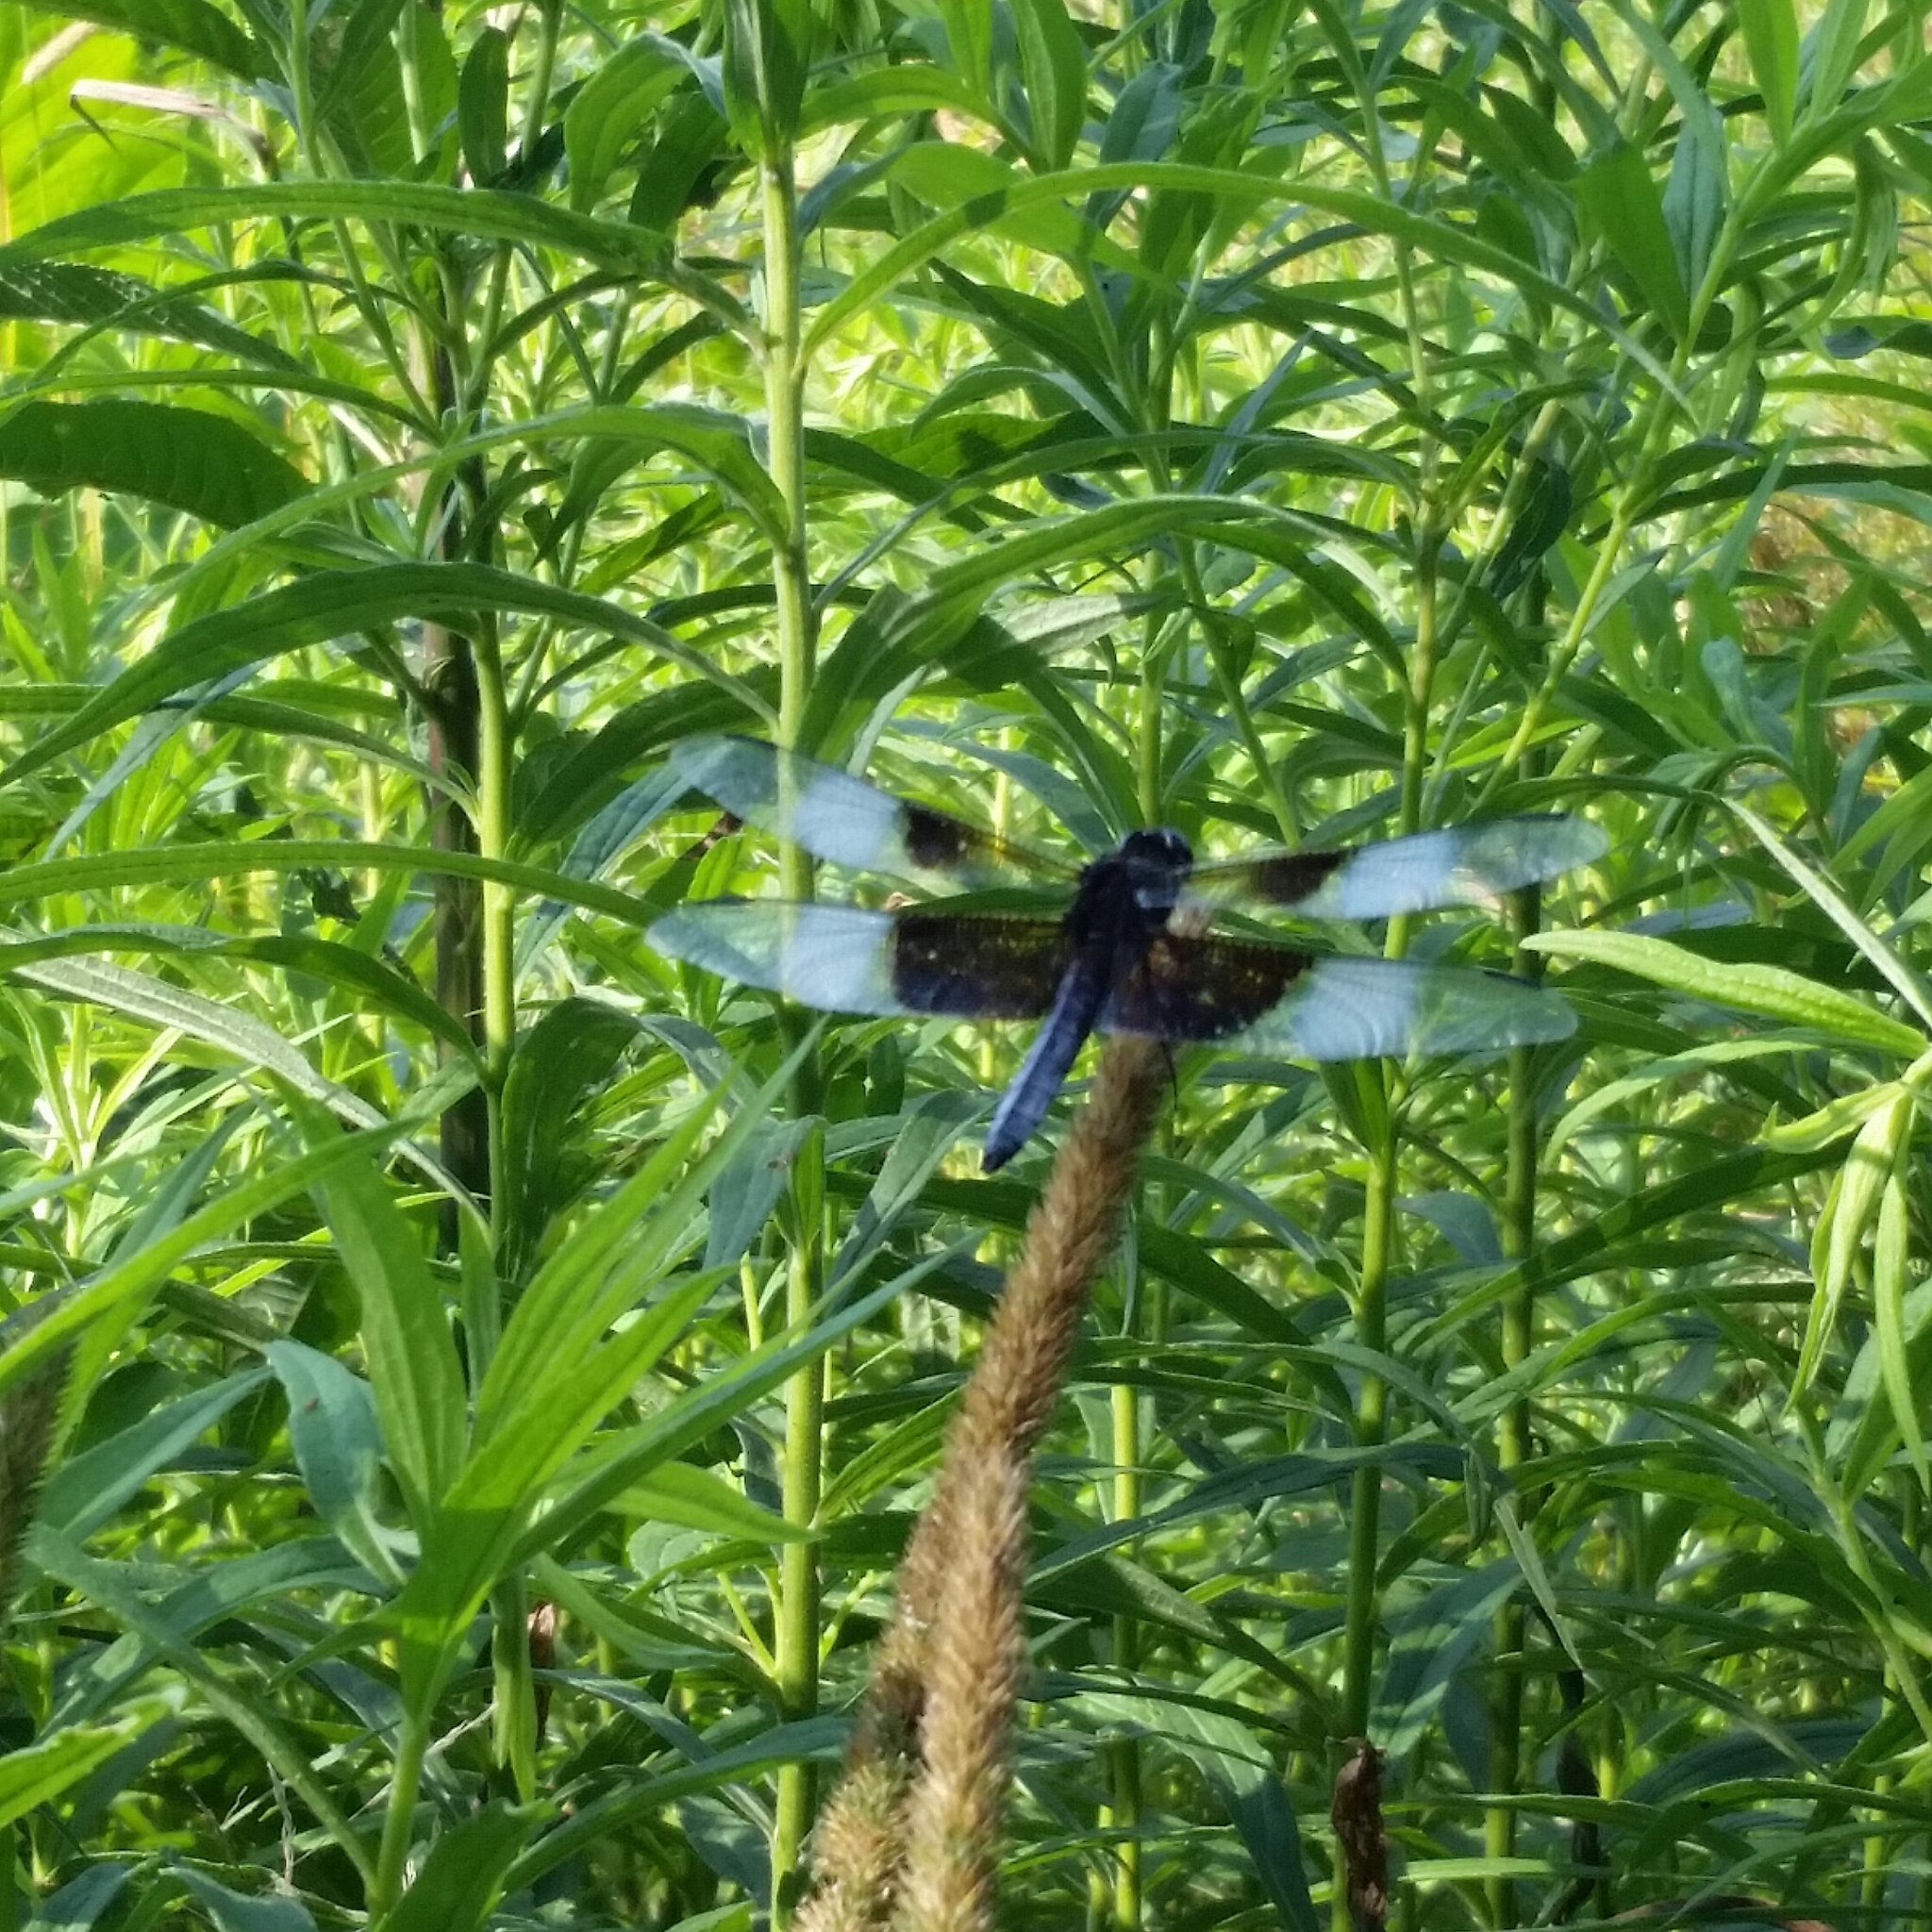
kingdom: Animalia
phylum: Arthropoda
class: Insecta
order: Odonata
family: Libellulidae
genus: Libellula
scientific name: Libellula luctuosa
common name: Widow skimmer
